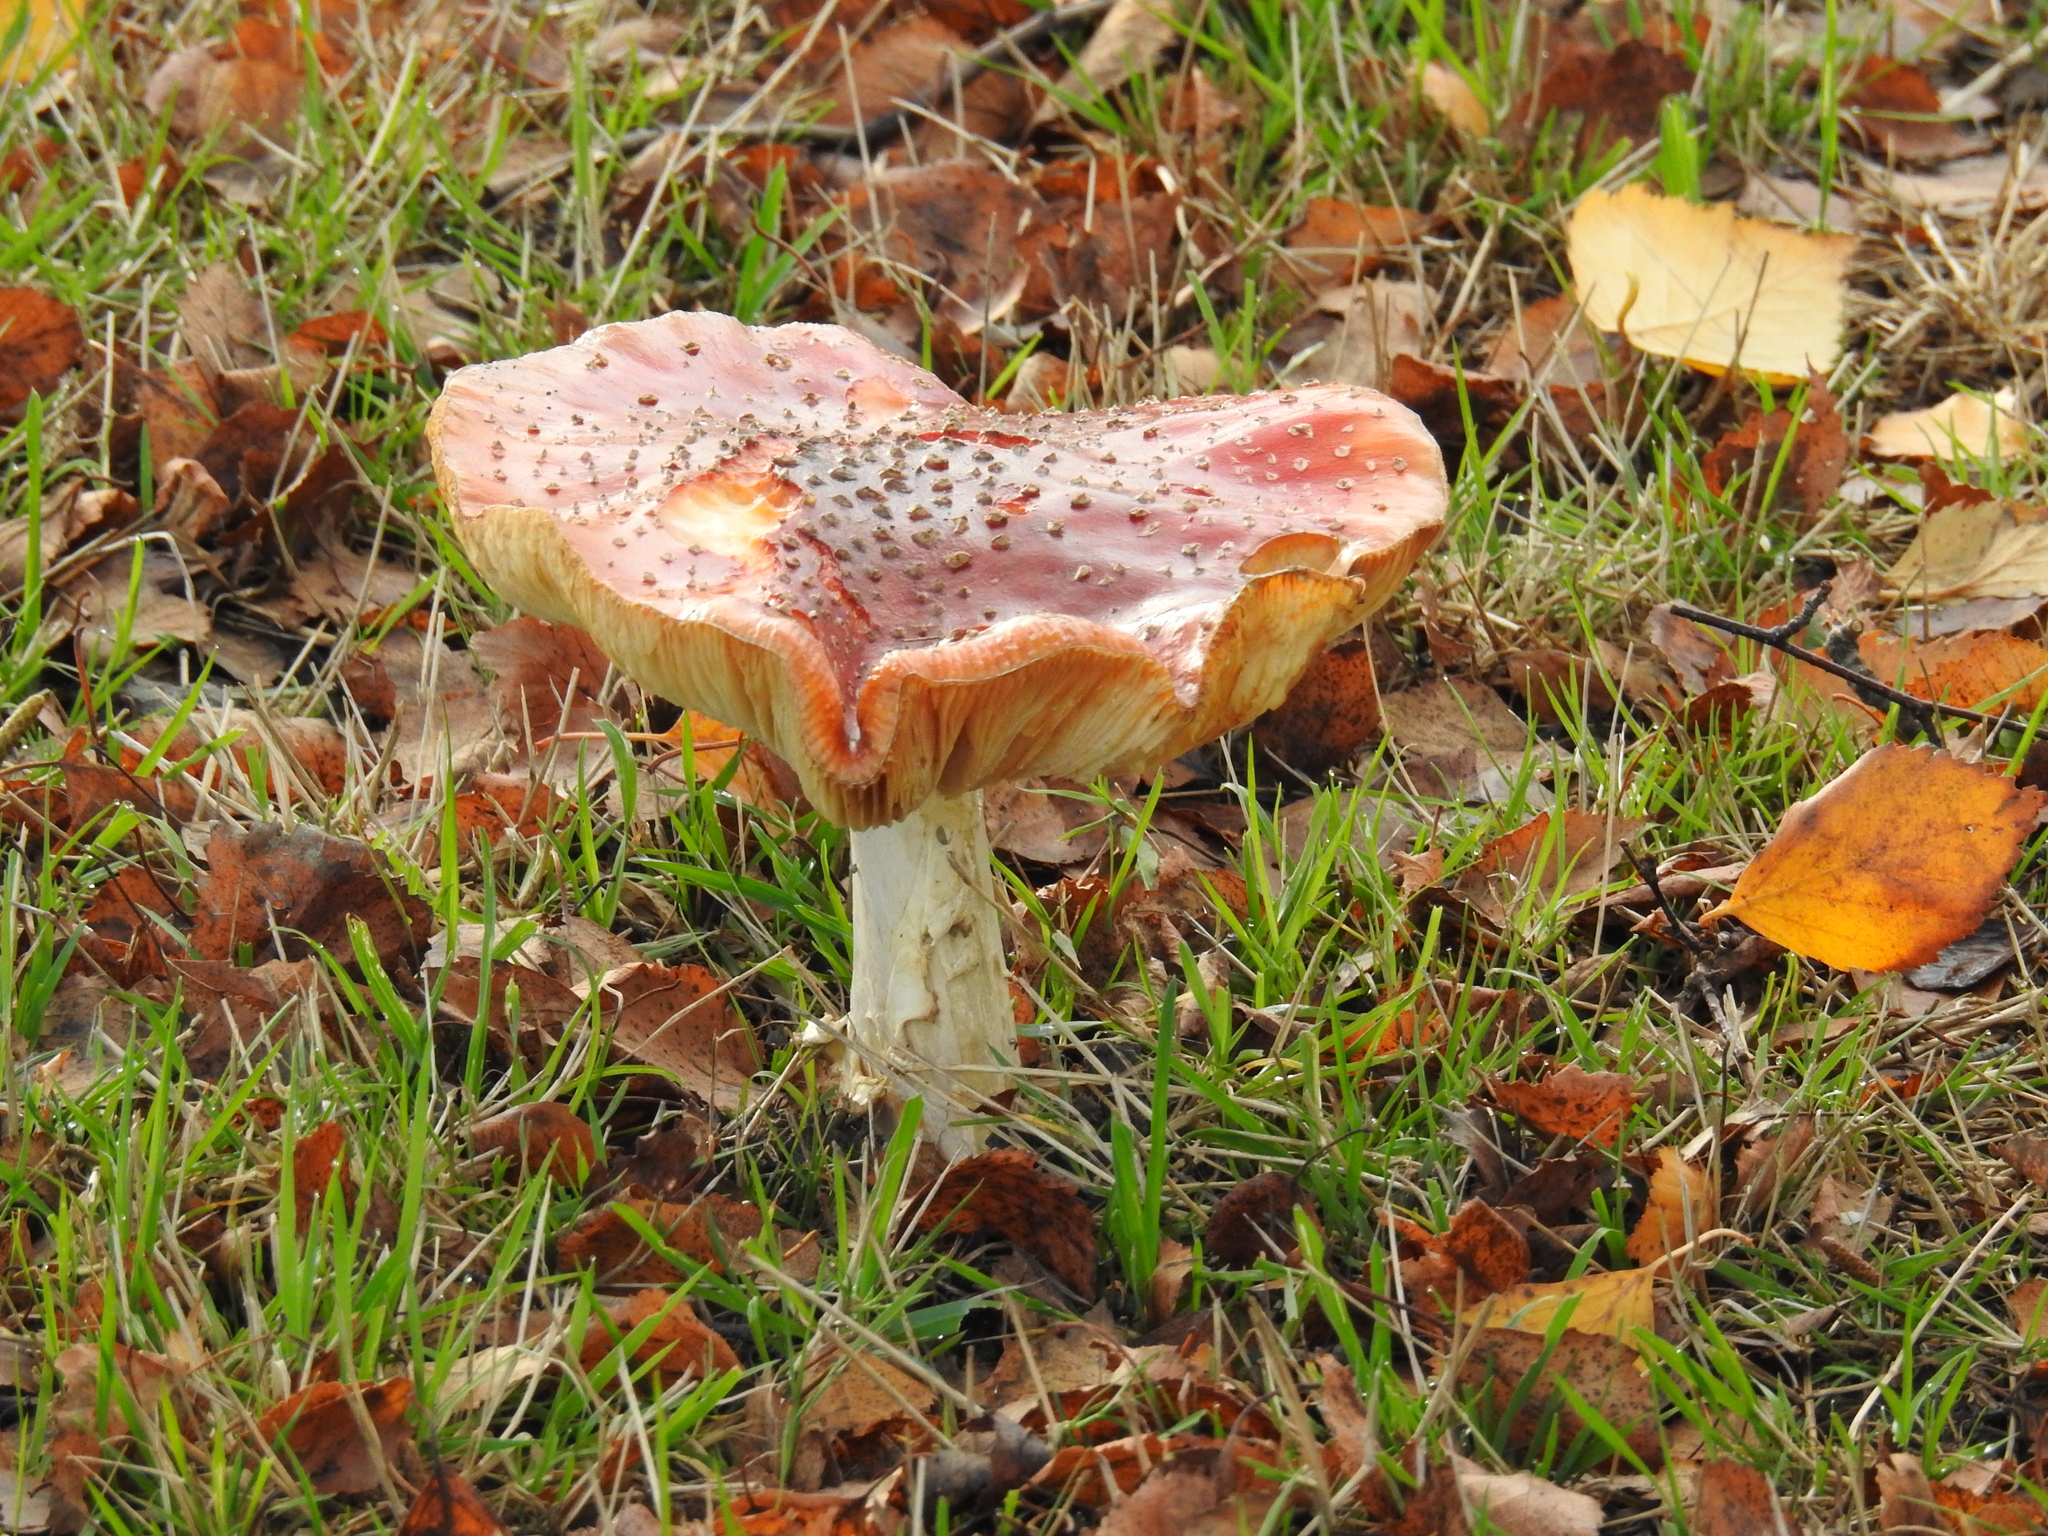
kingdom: Fungi
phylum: Basidiomycota
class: Agaricomycetes
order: Agaricales
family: Amanitaceae
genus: Amanita
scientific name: Amanita muscaria
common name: Fly agaric
